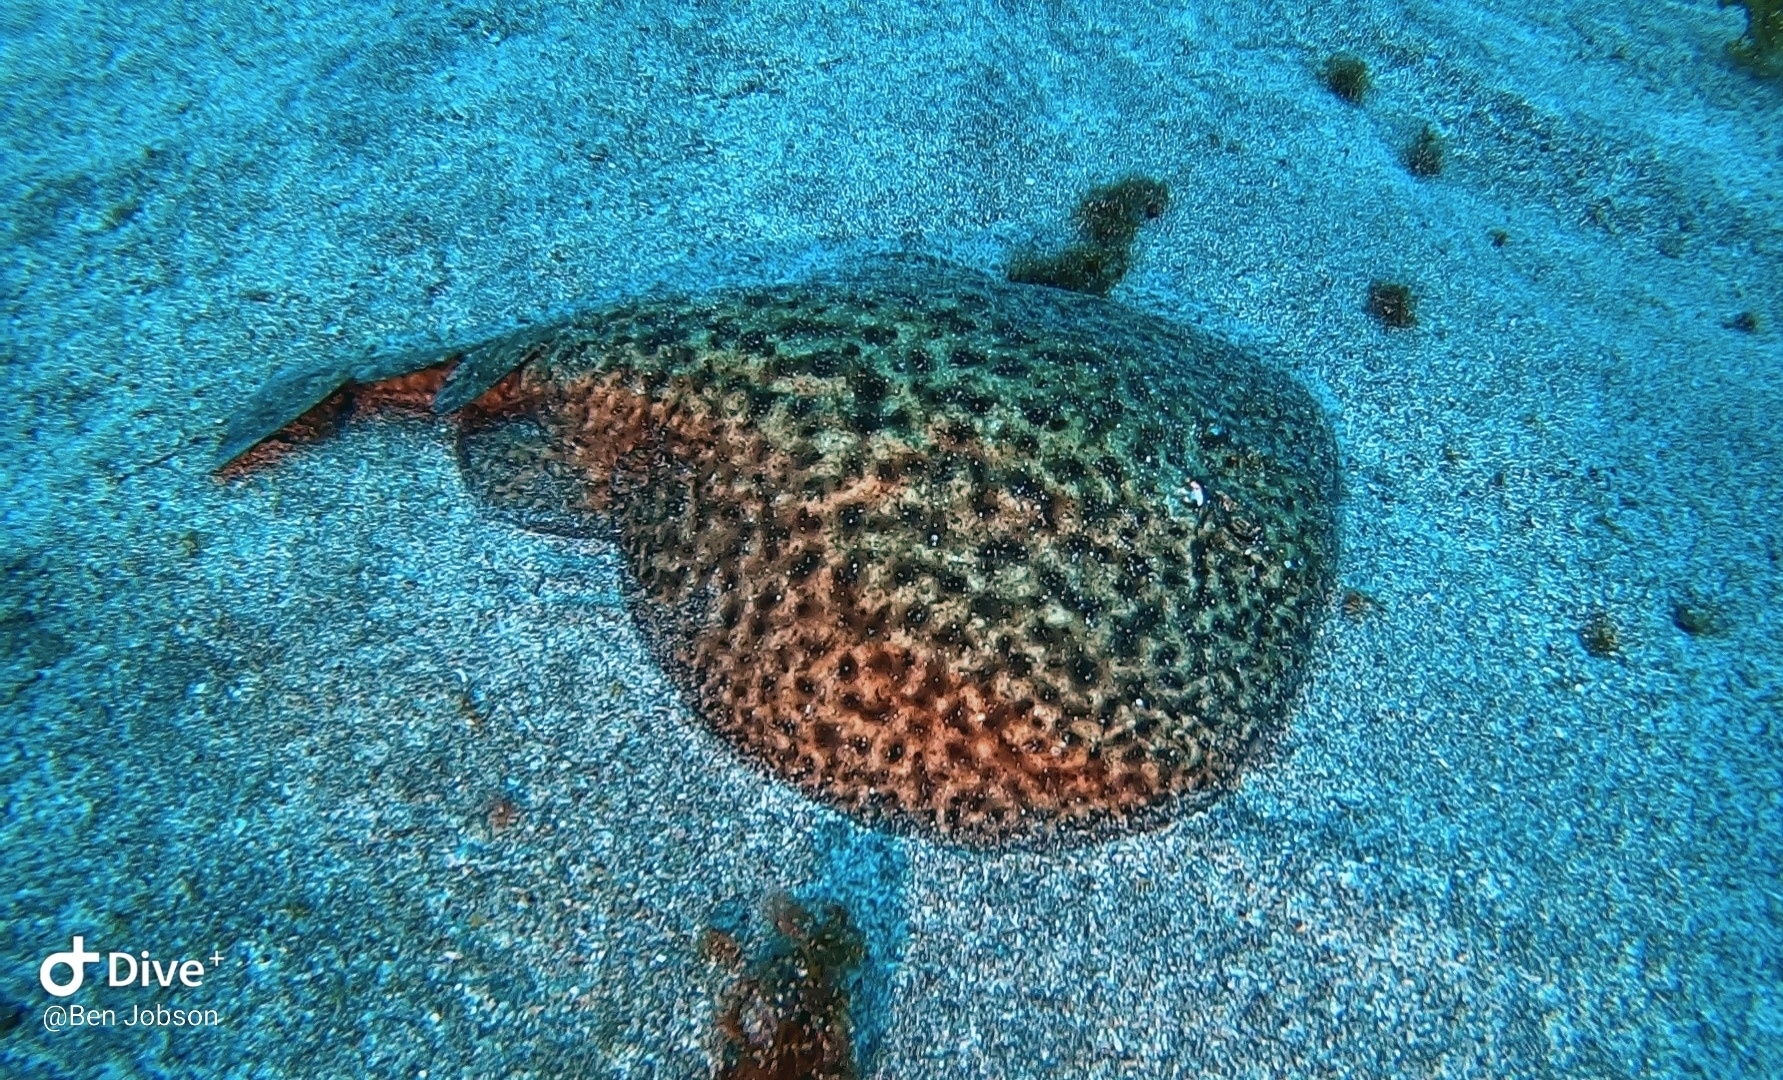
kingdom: Animalia
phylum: Chordata
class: Elasmobranchii
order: Torpediniformes
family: Torpedinidae
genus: Torpedo
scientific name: Torpedo marmorata
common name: Marbled electric ray
